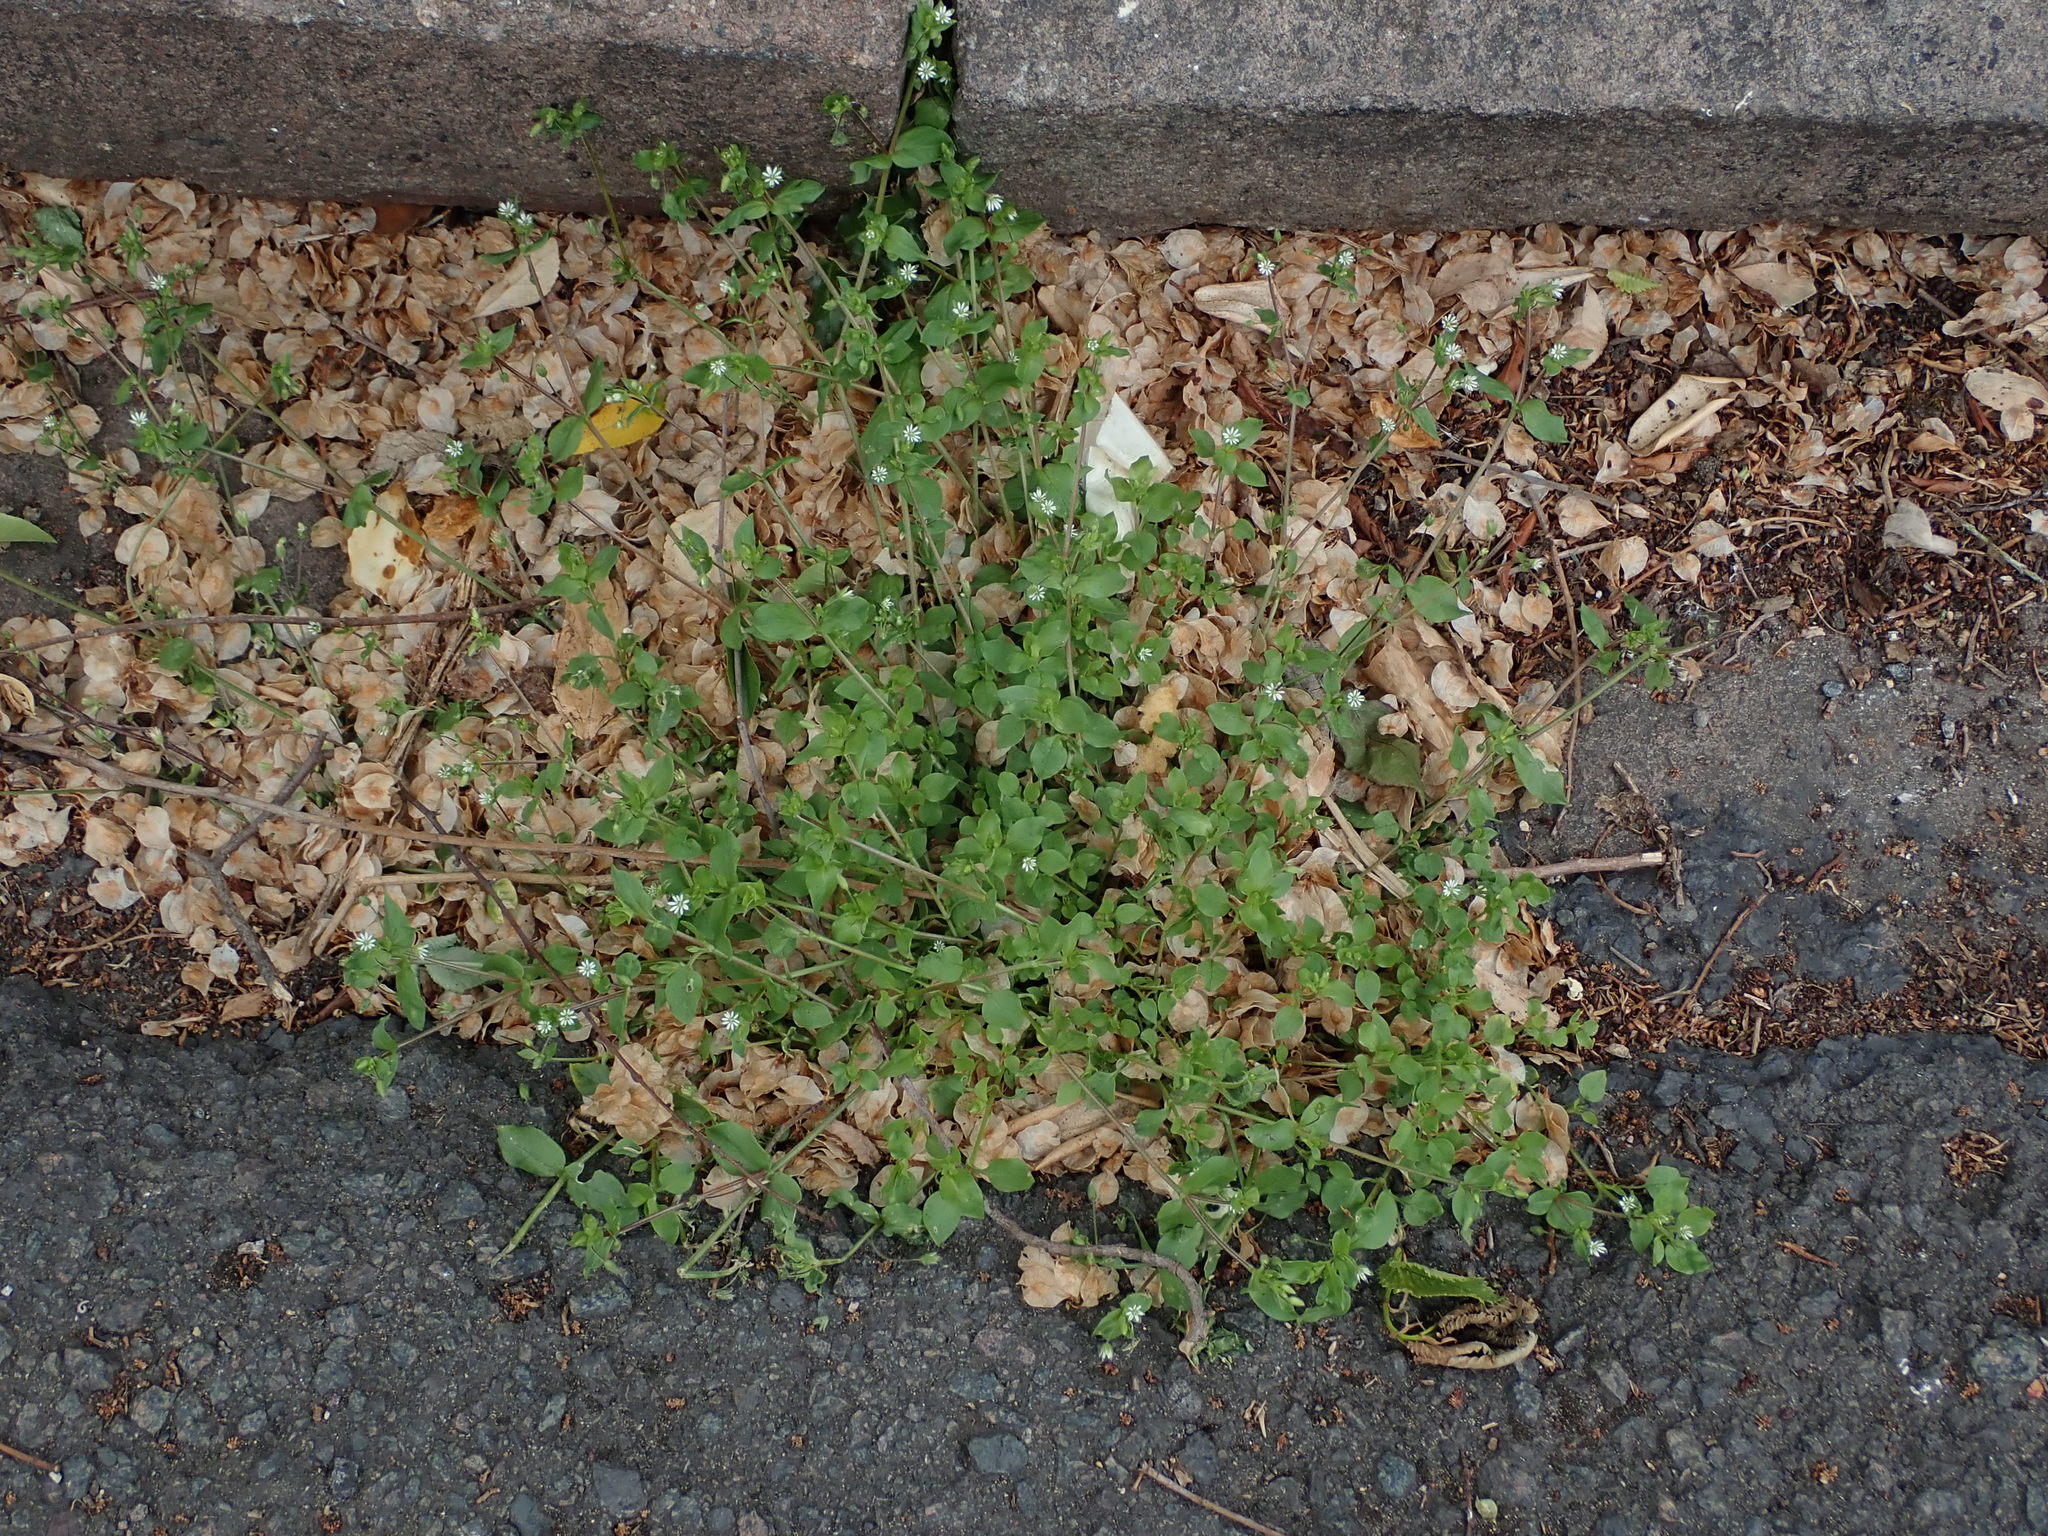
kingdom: Plantae
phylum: Tracheophyta
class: Magnoliopsida
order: Caryophyllales
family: Caryophyllaceae
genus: Stellaria
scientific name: Stellaria media
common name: Common chickweed
